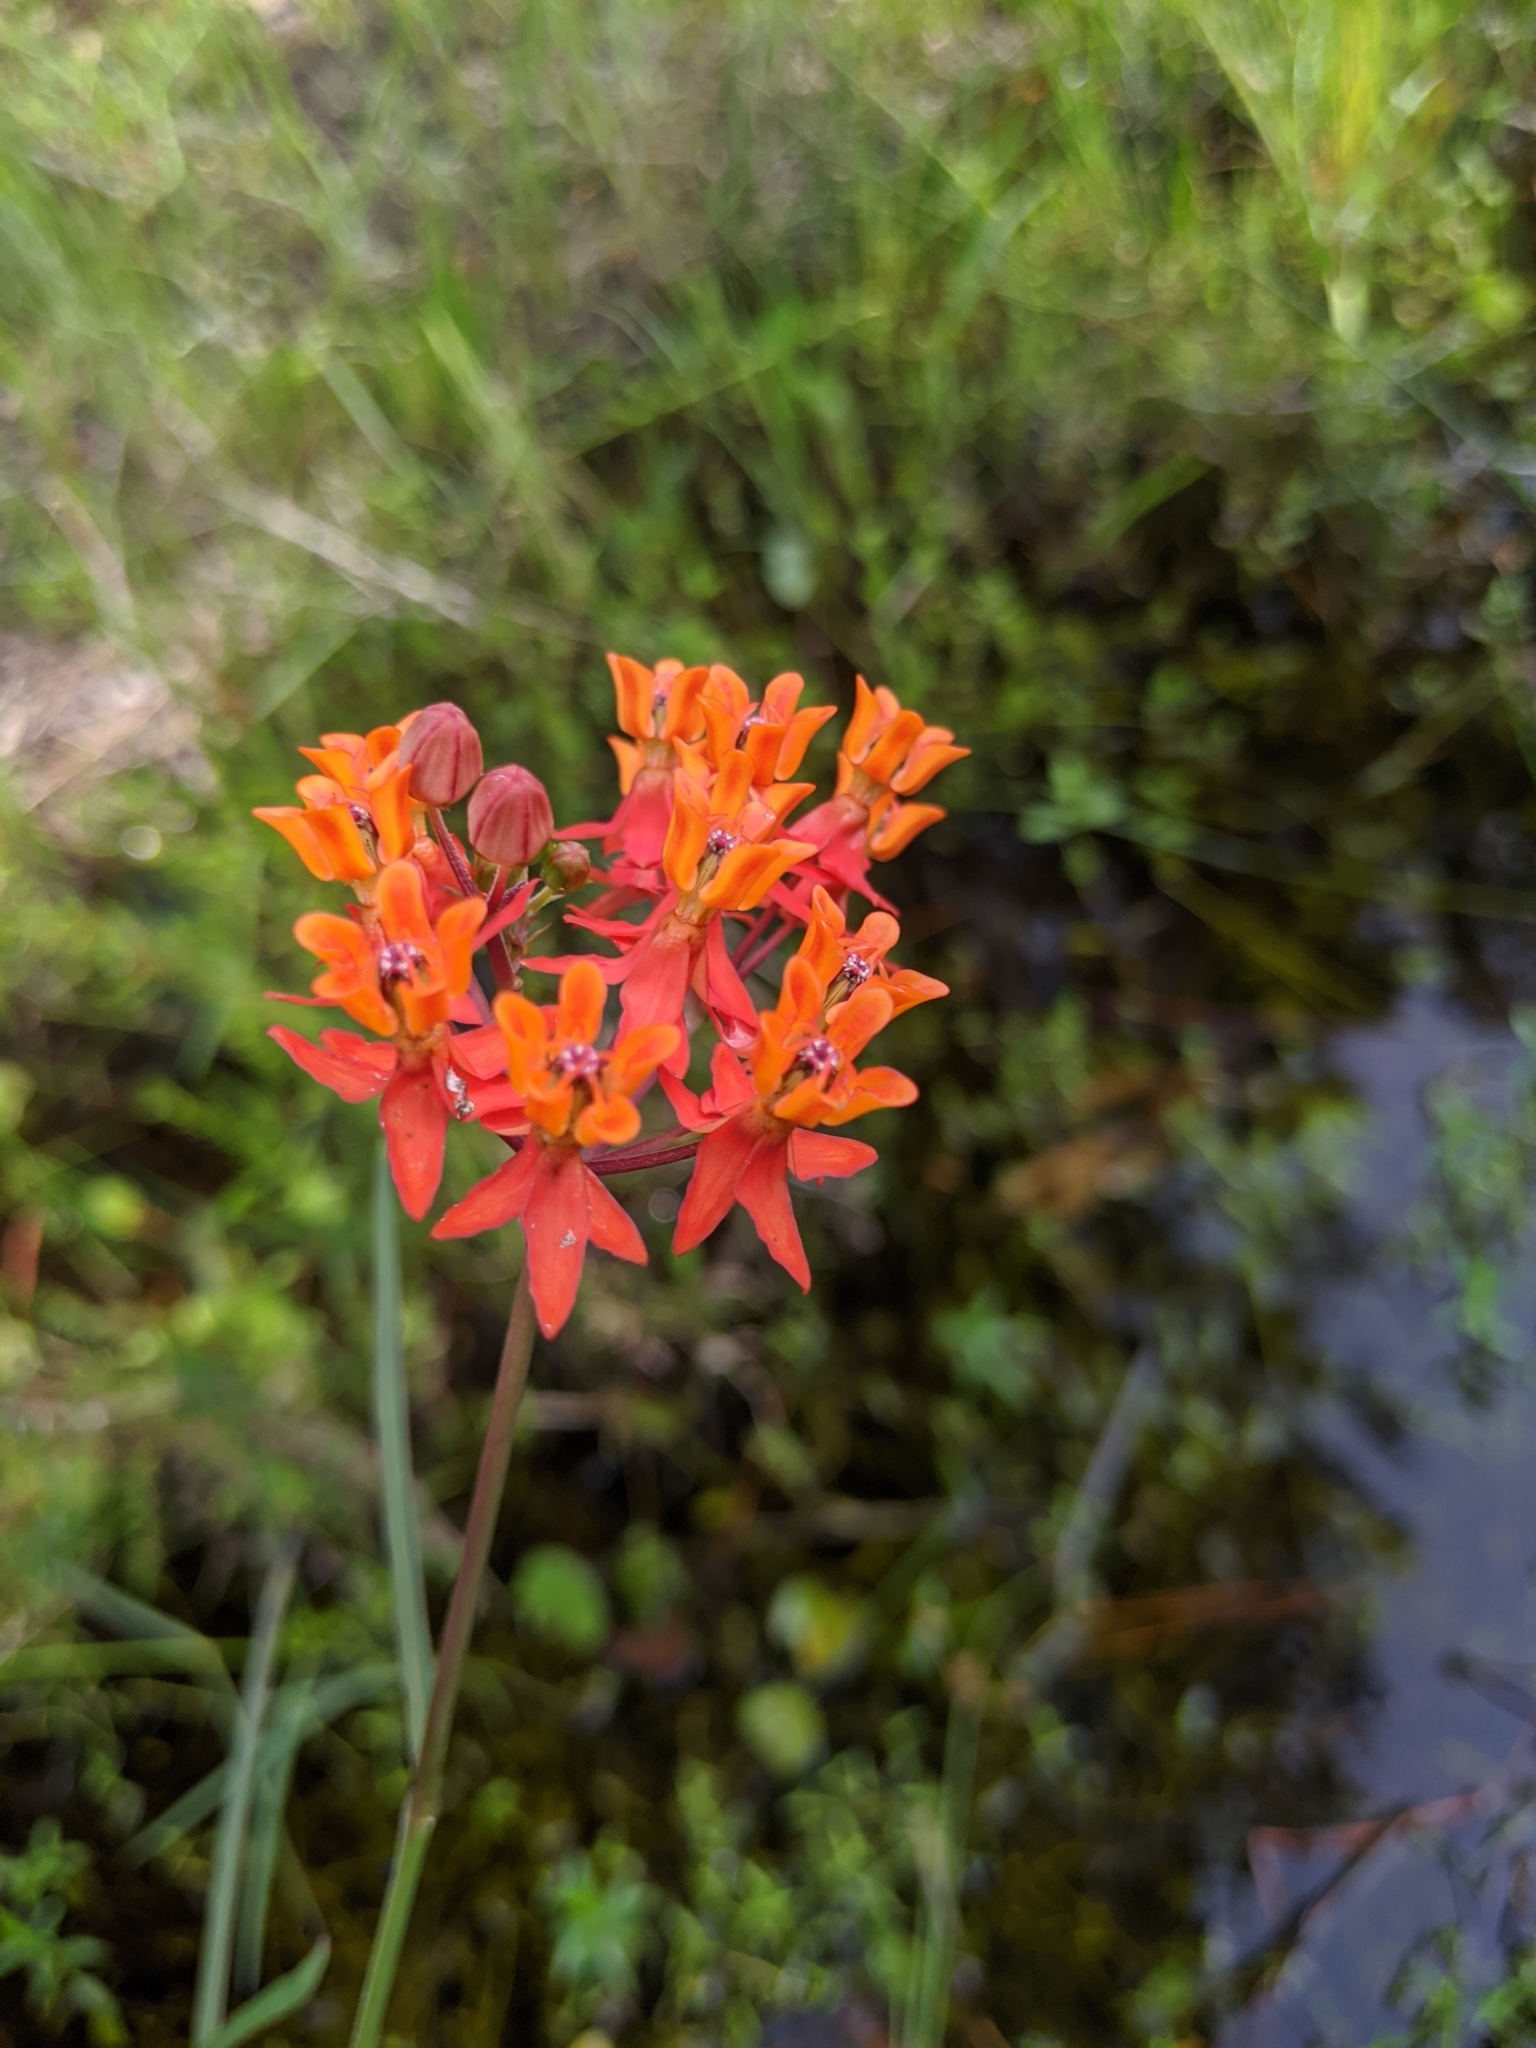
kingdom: Plantae
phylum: Tracheophyta
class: Magnoliopsida
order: Gentianales
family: Apocynaceae
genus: Asclepias
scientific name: Asclepias lanceolata
